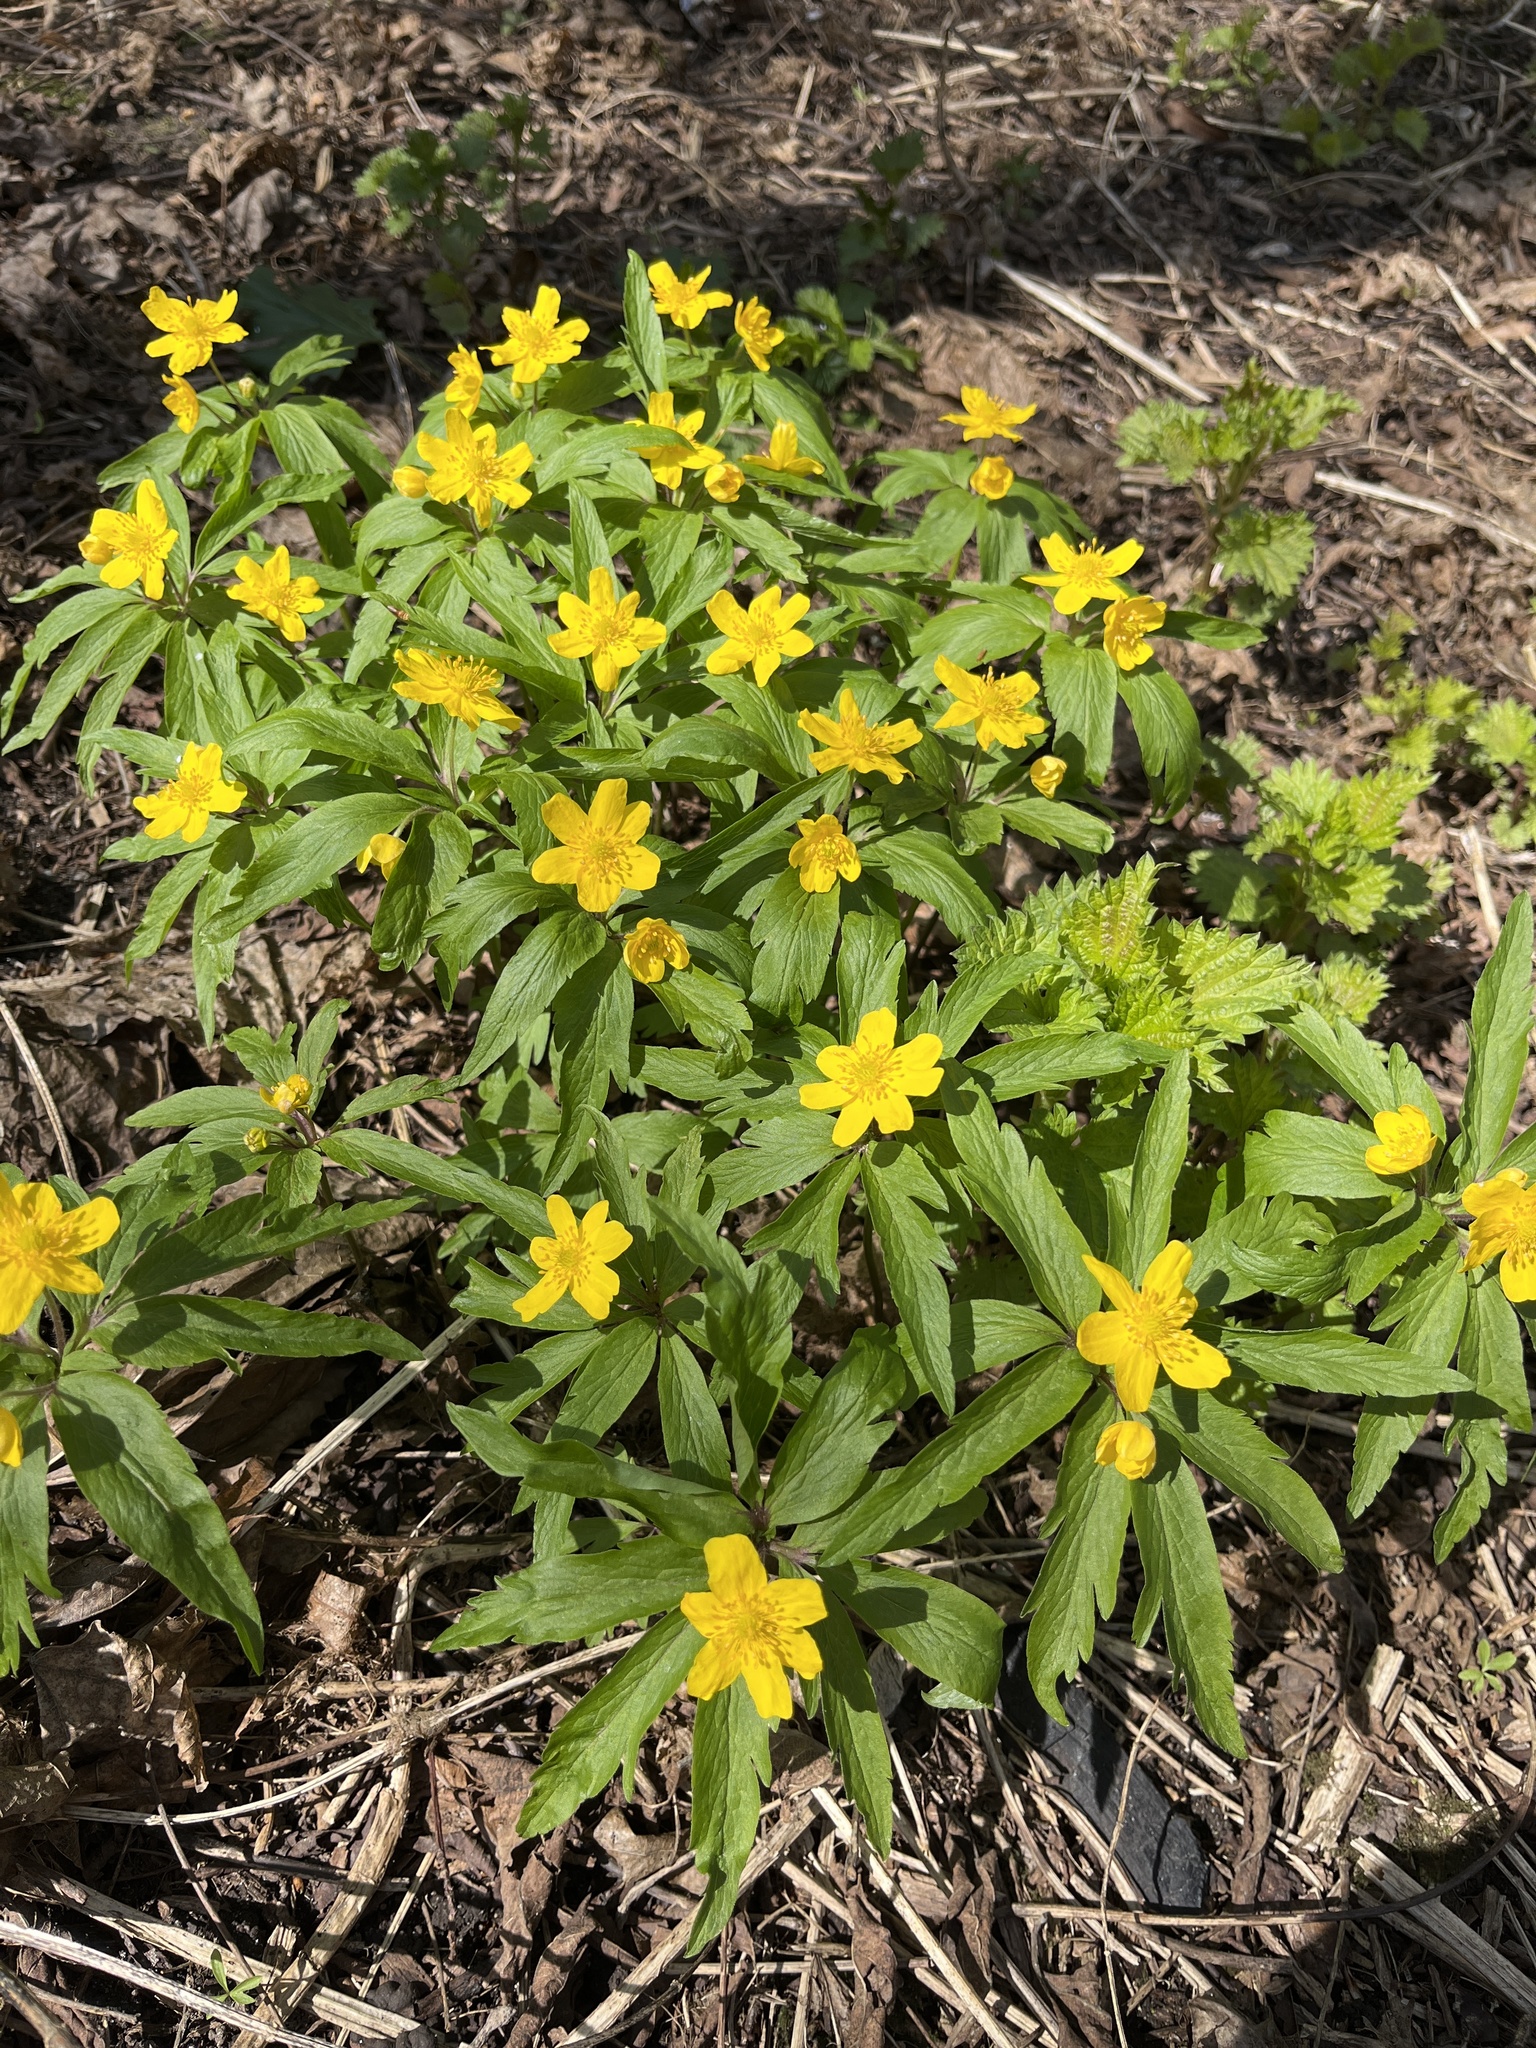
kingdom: Plantae
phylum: Tracheophyta
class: Magnoliopsida
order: Ranunculales
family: Ranunculaceae
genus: Anemone
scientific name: Anemone ranunculoides
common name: Yellow anemone
